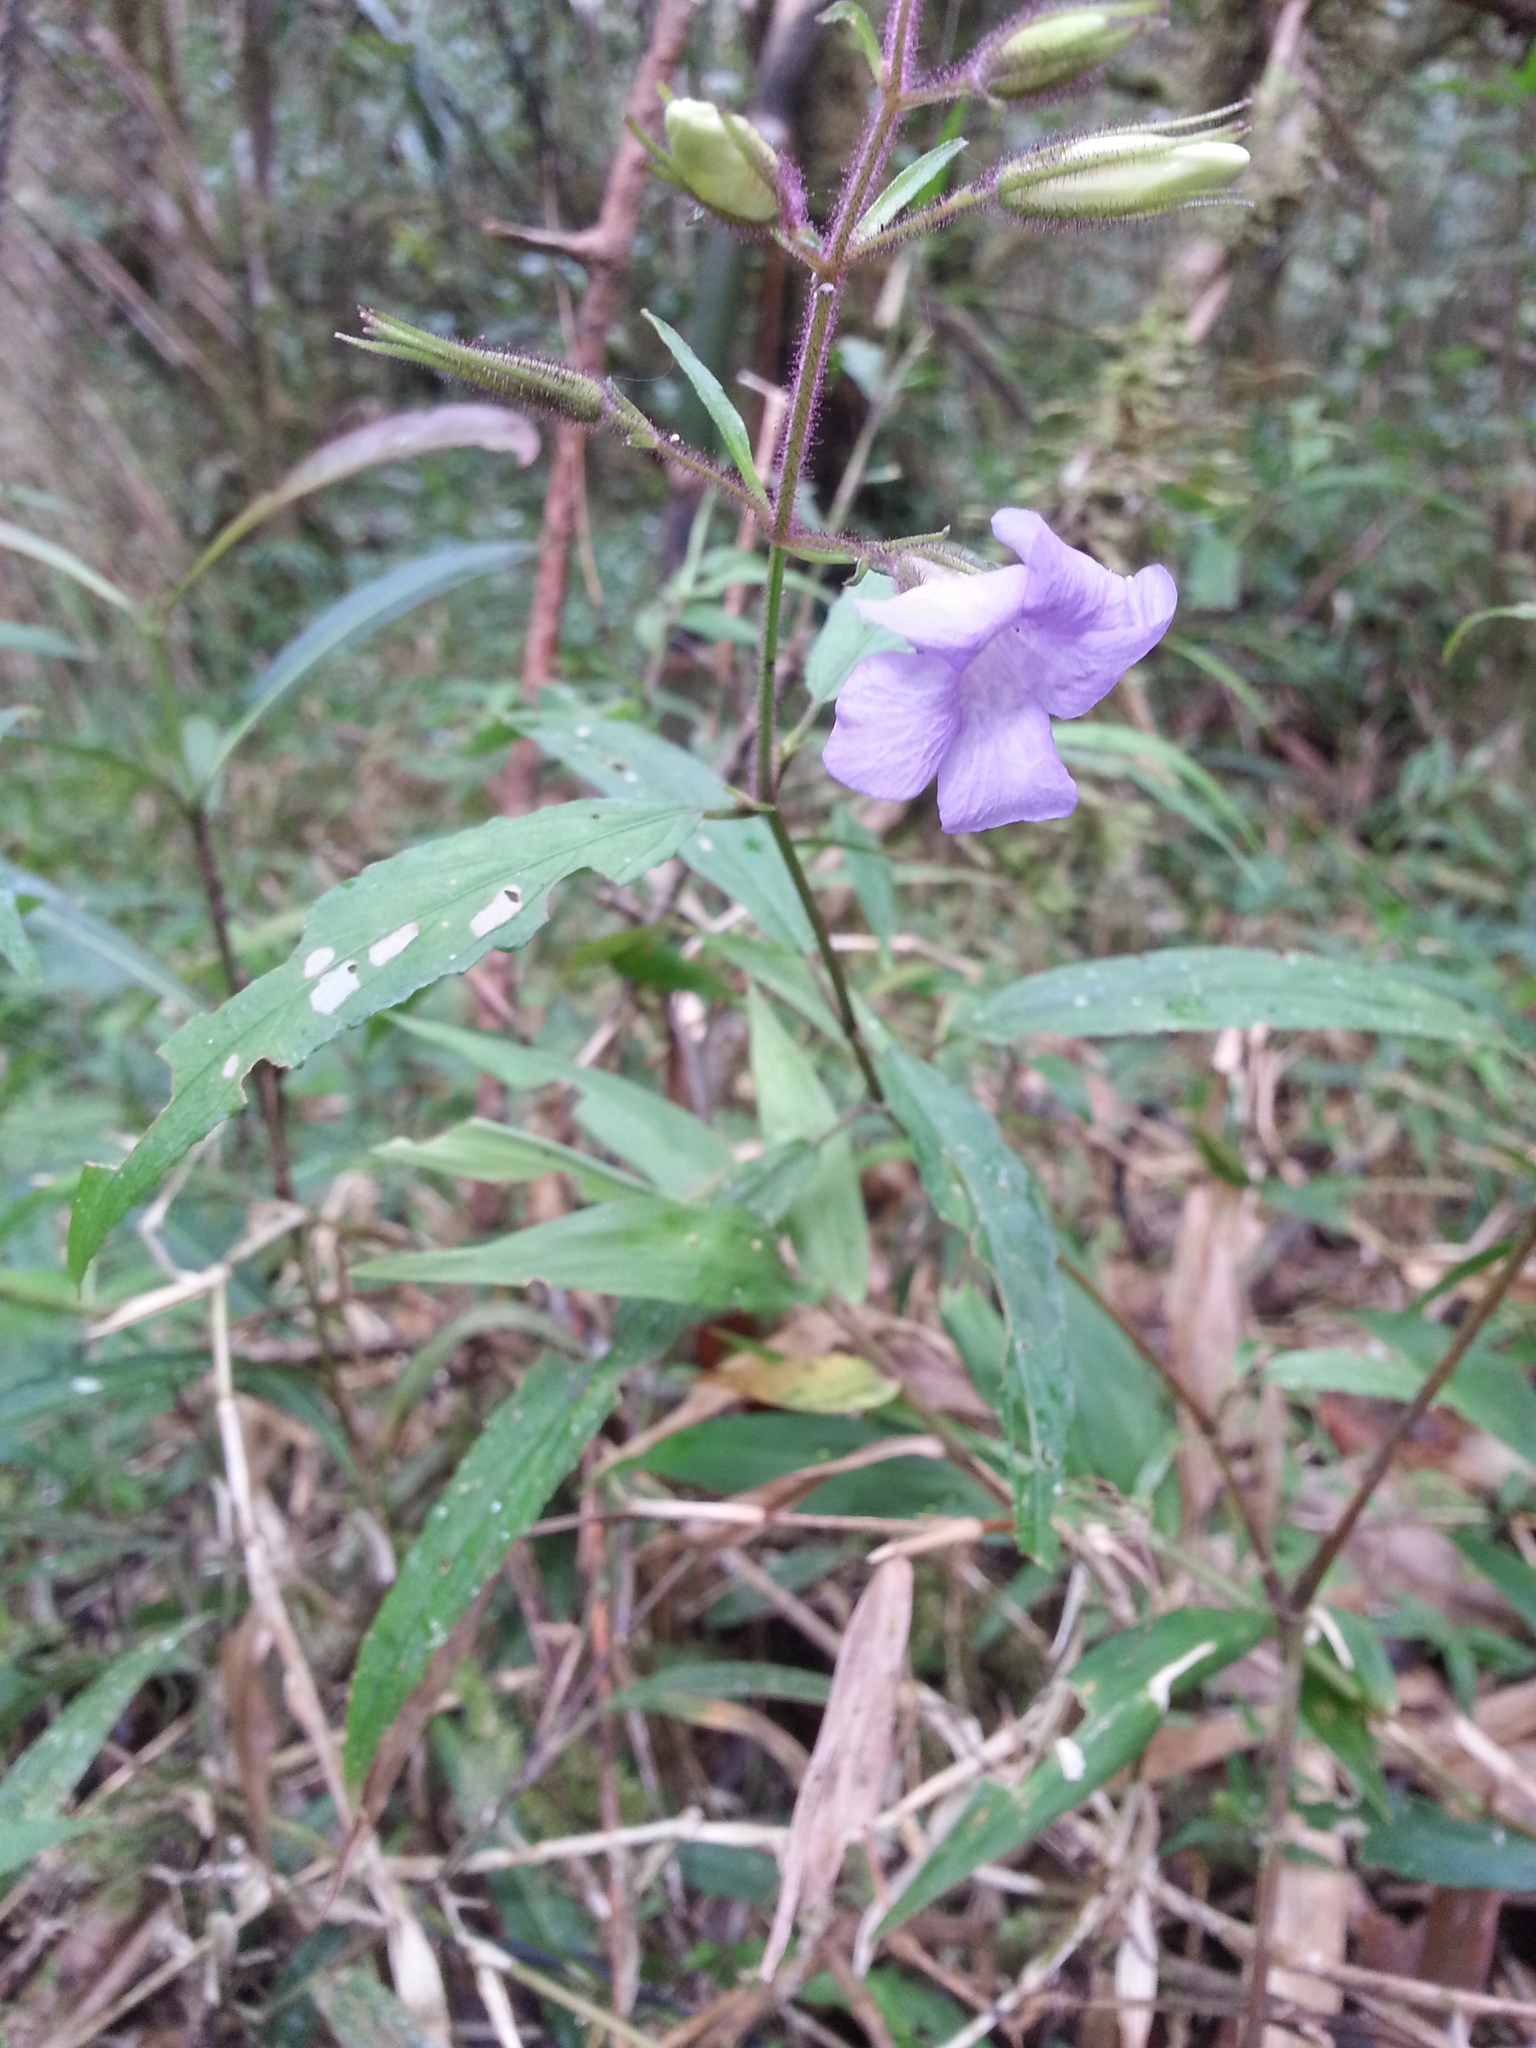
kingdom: Plantae
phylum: Tracheophyta
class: Magnoliopsida
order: Lamiales
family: Acanthaceae
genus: Mimulopsis
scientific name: Mimulopsis lyalliana
